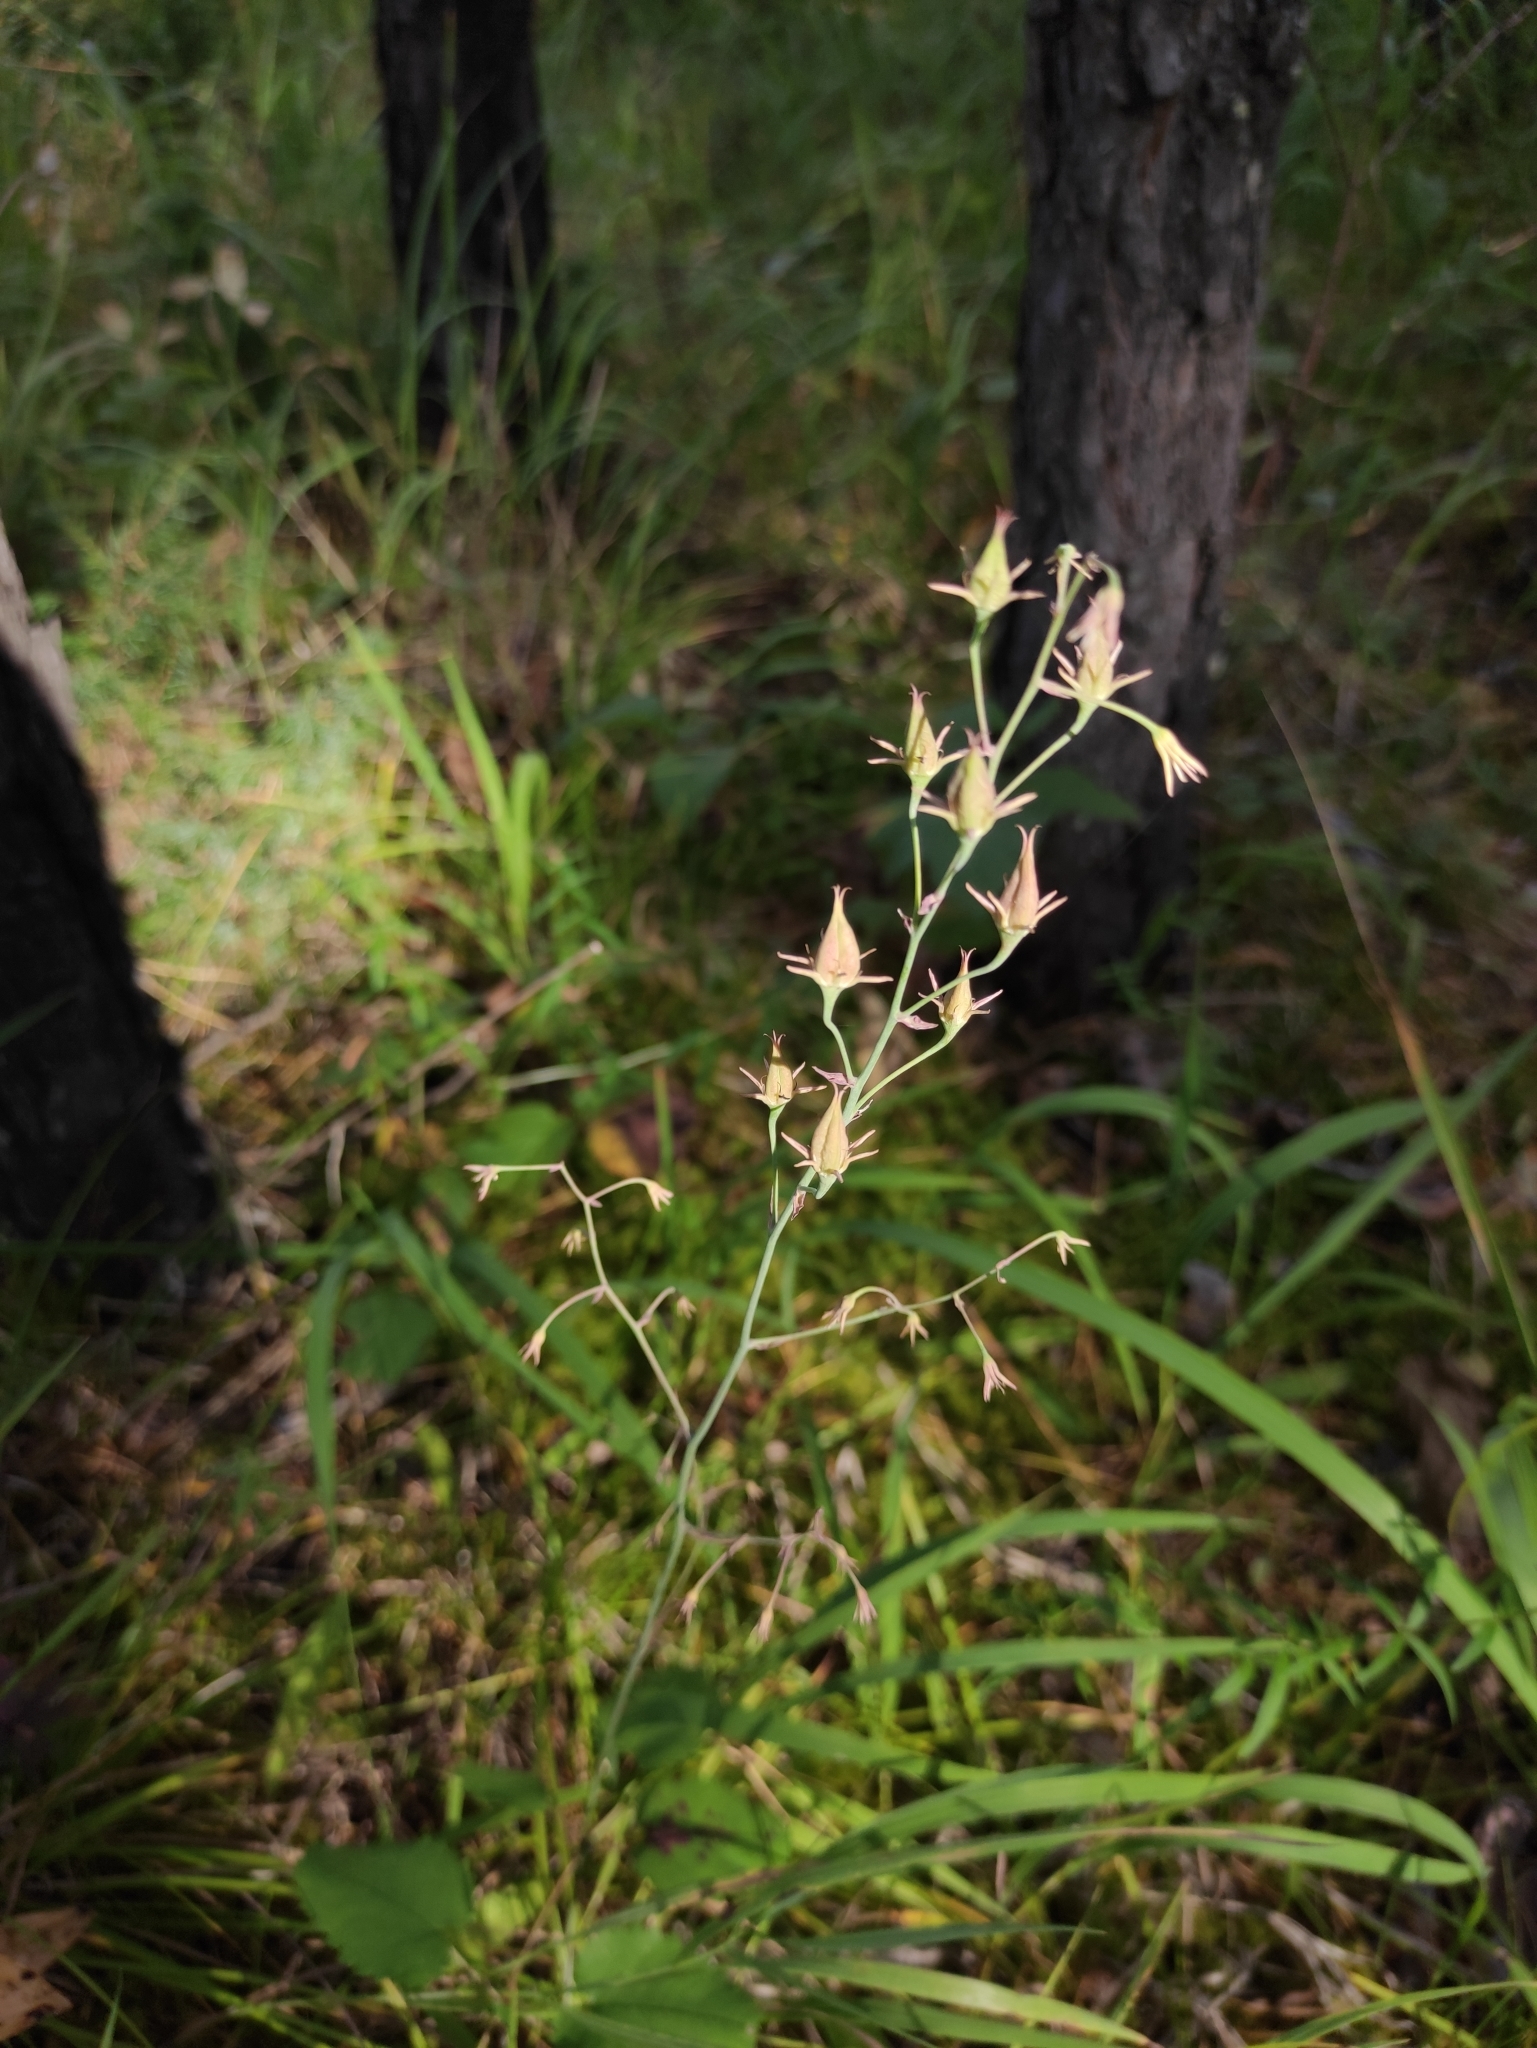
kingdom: Plantae
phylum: Tracheophyta
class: Liliopsida
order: Liliales
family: Melanthiaceae
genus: Anticlea
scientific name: Anticlea sibirica
